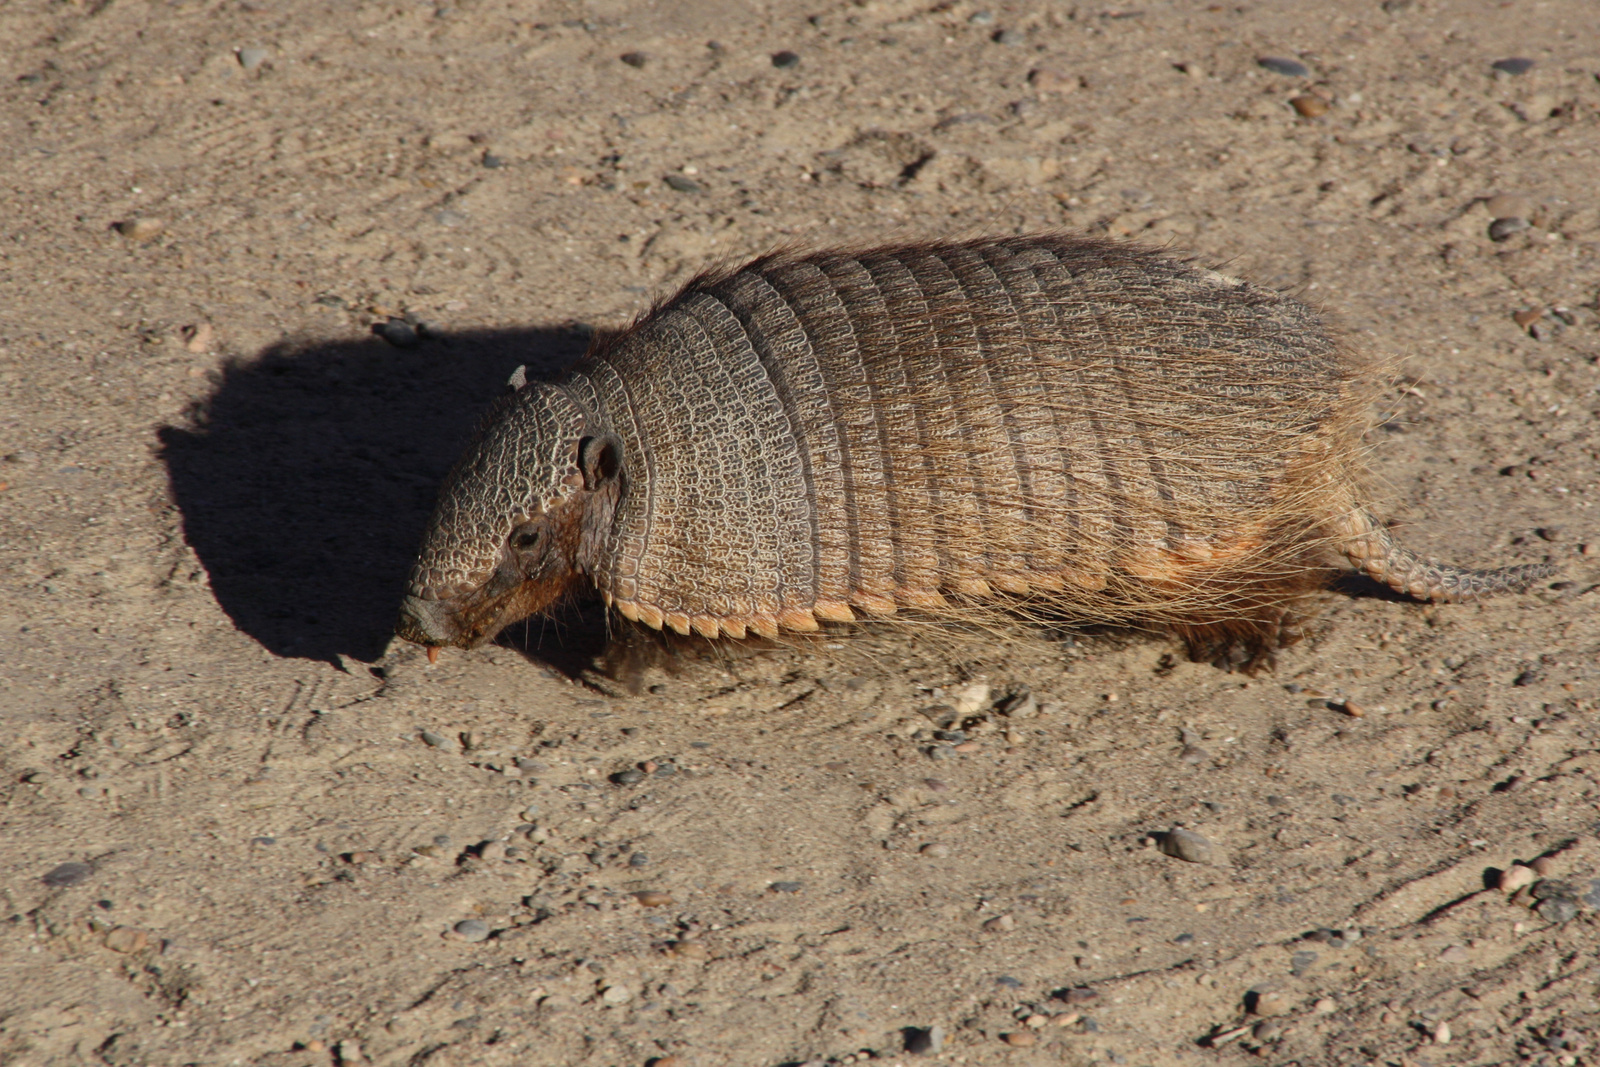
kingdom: Animalia
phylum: Chordata
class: Mammalia
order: Cingulata
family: Dasypodidae
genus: Chaetophractus
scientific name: Chaetophractus villosus
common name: Big hairy armadillo
